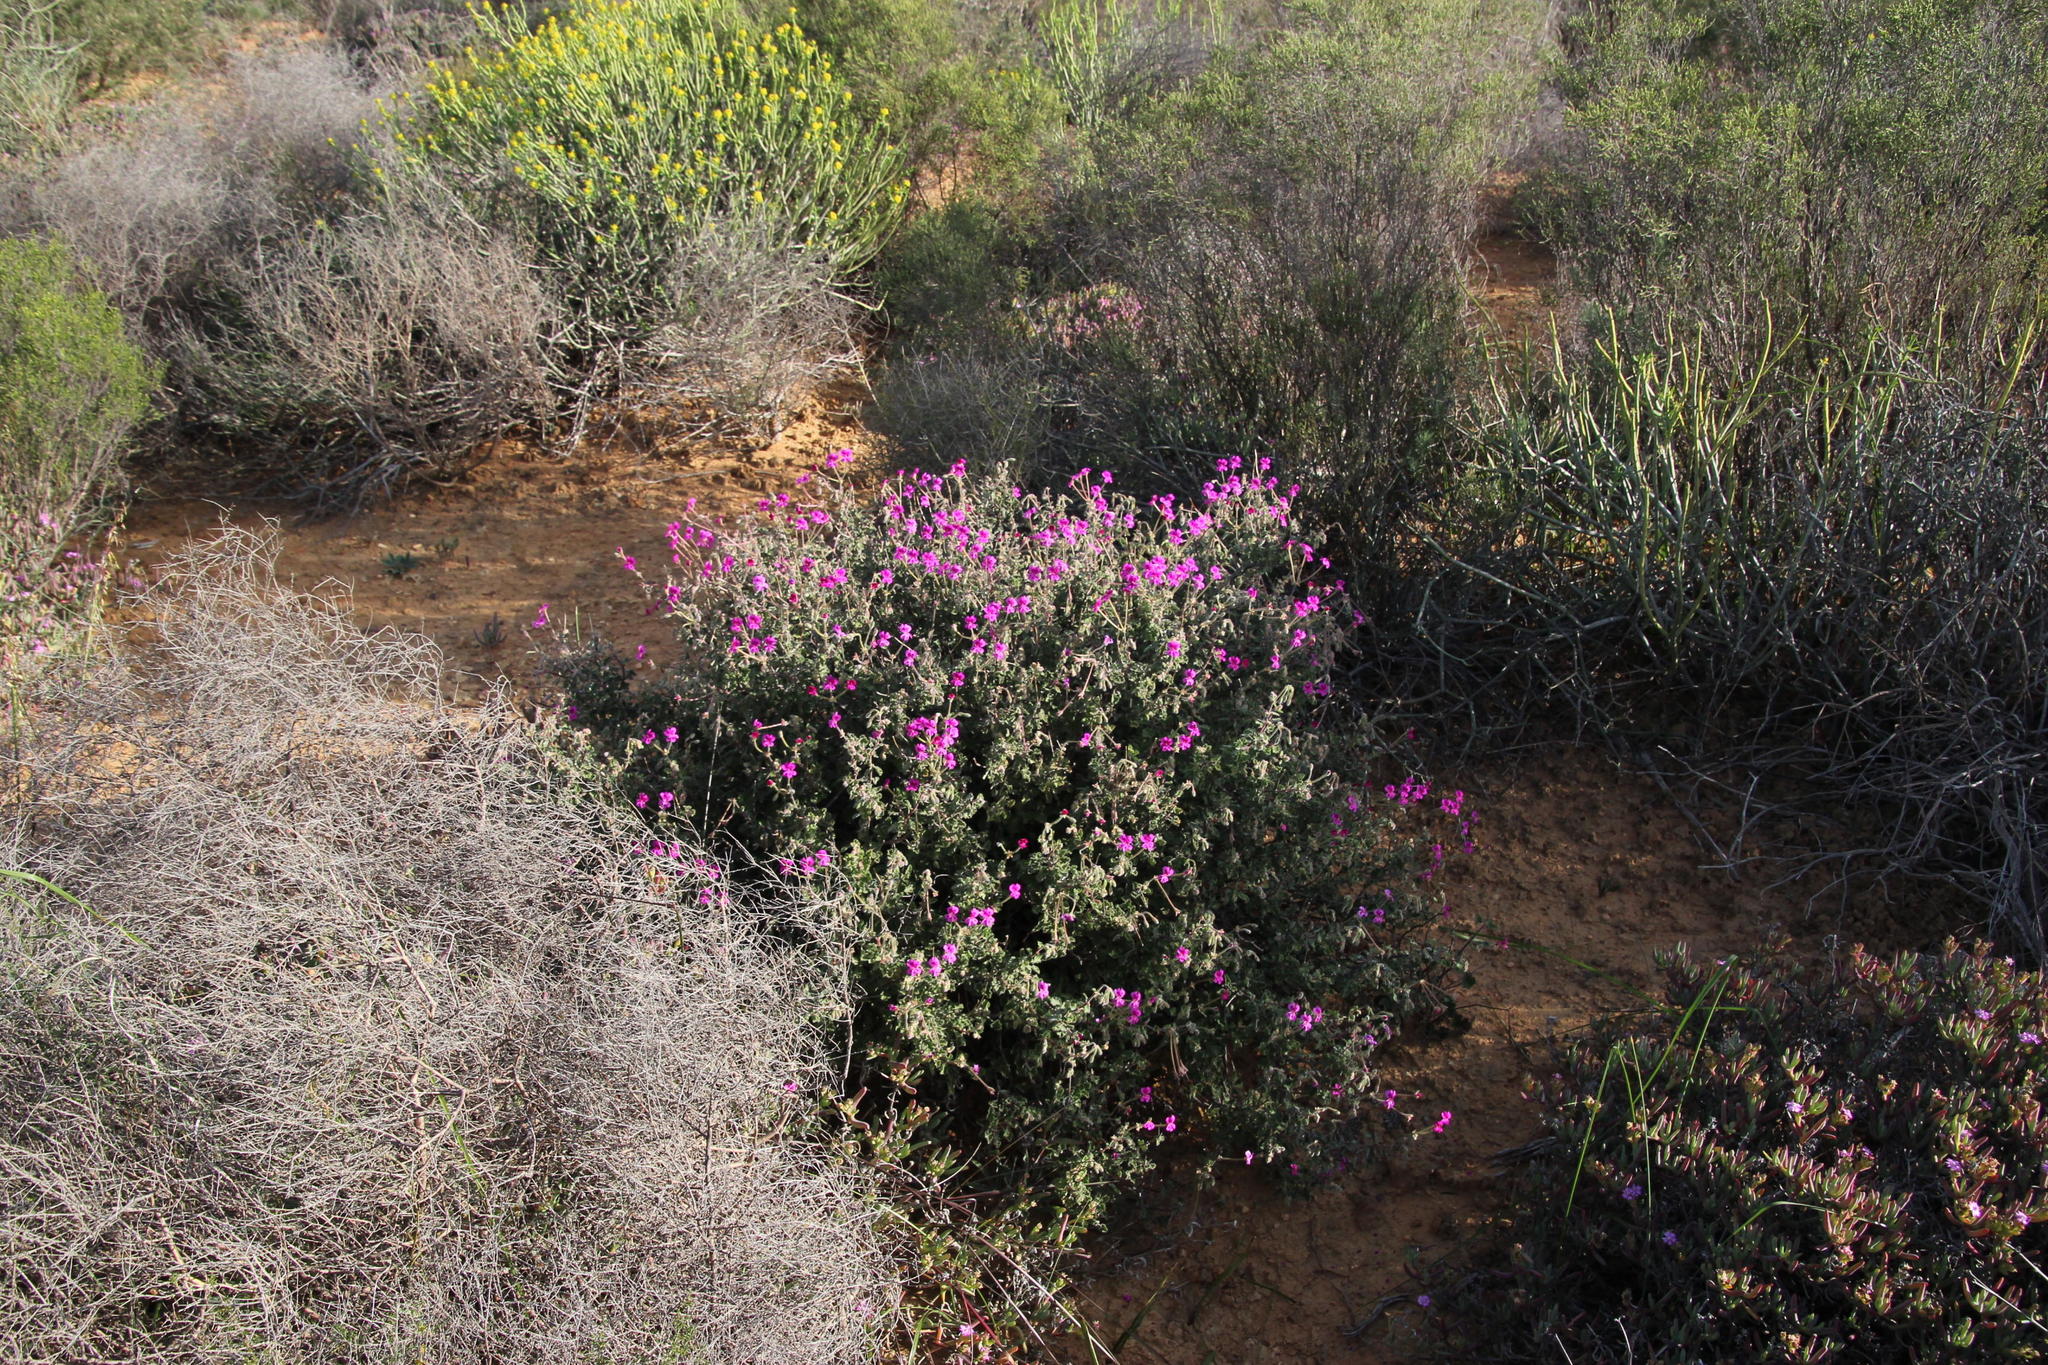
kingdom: Plantae
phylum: Tracheophyta
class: Magnoliopsida
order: Geraniales
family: Geraniaceae
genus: Pelargonium
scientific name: Pelargonium magenteum
